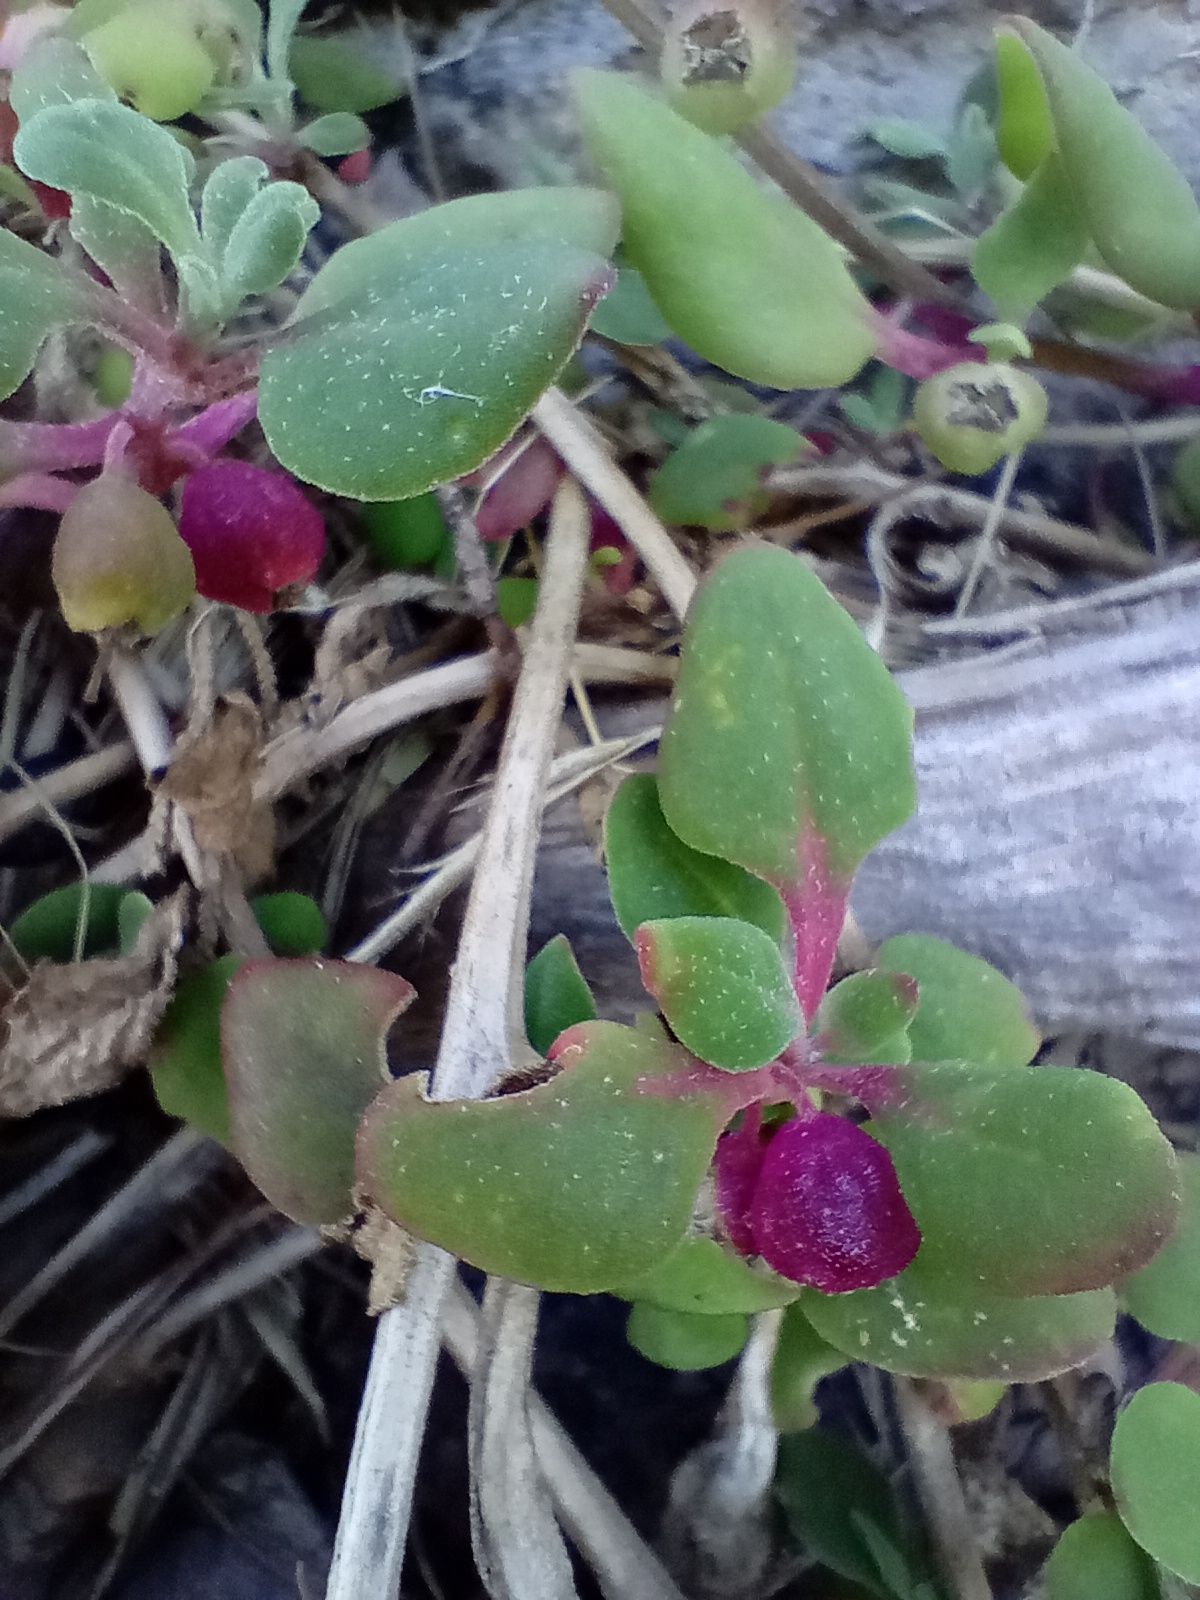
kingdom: Plantae
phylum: Tracheophyta
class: Magnoliopsida
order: Caryophyllales
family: Aizoaceae
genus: Tetragonia
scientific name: Tetragonia implexicoma
